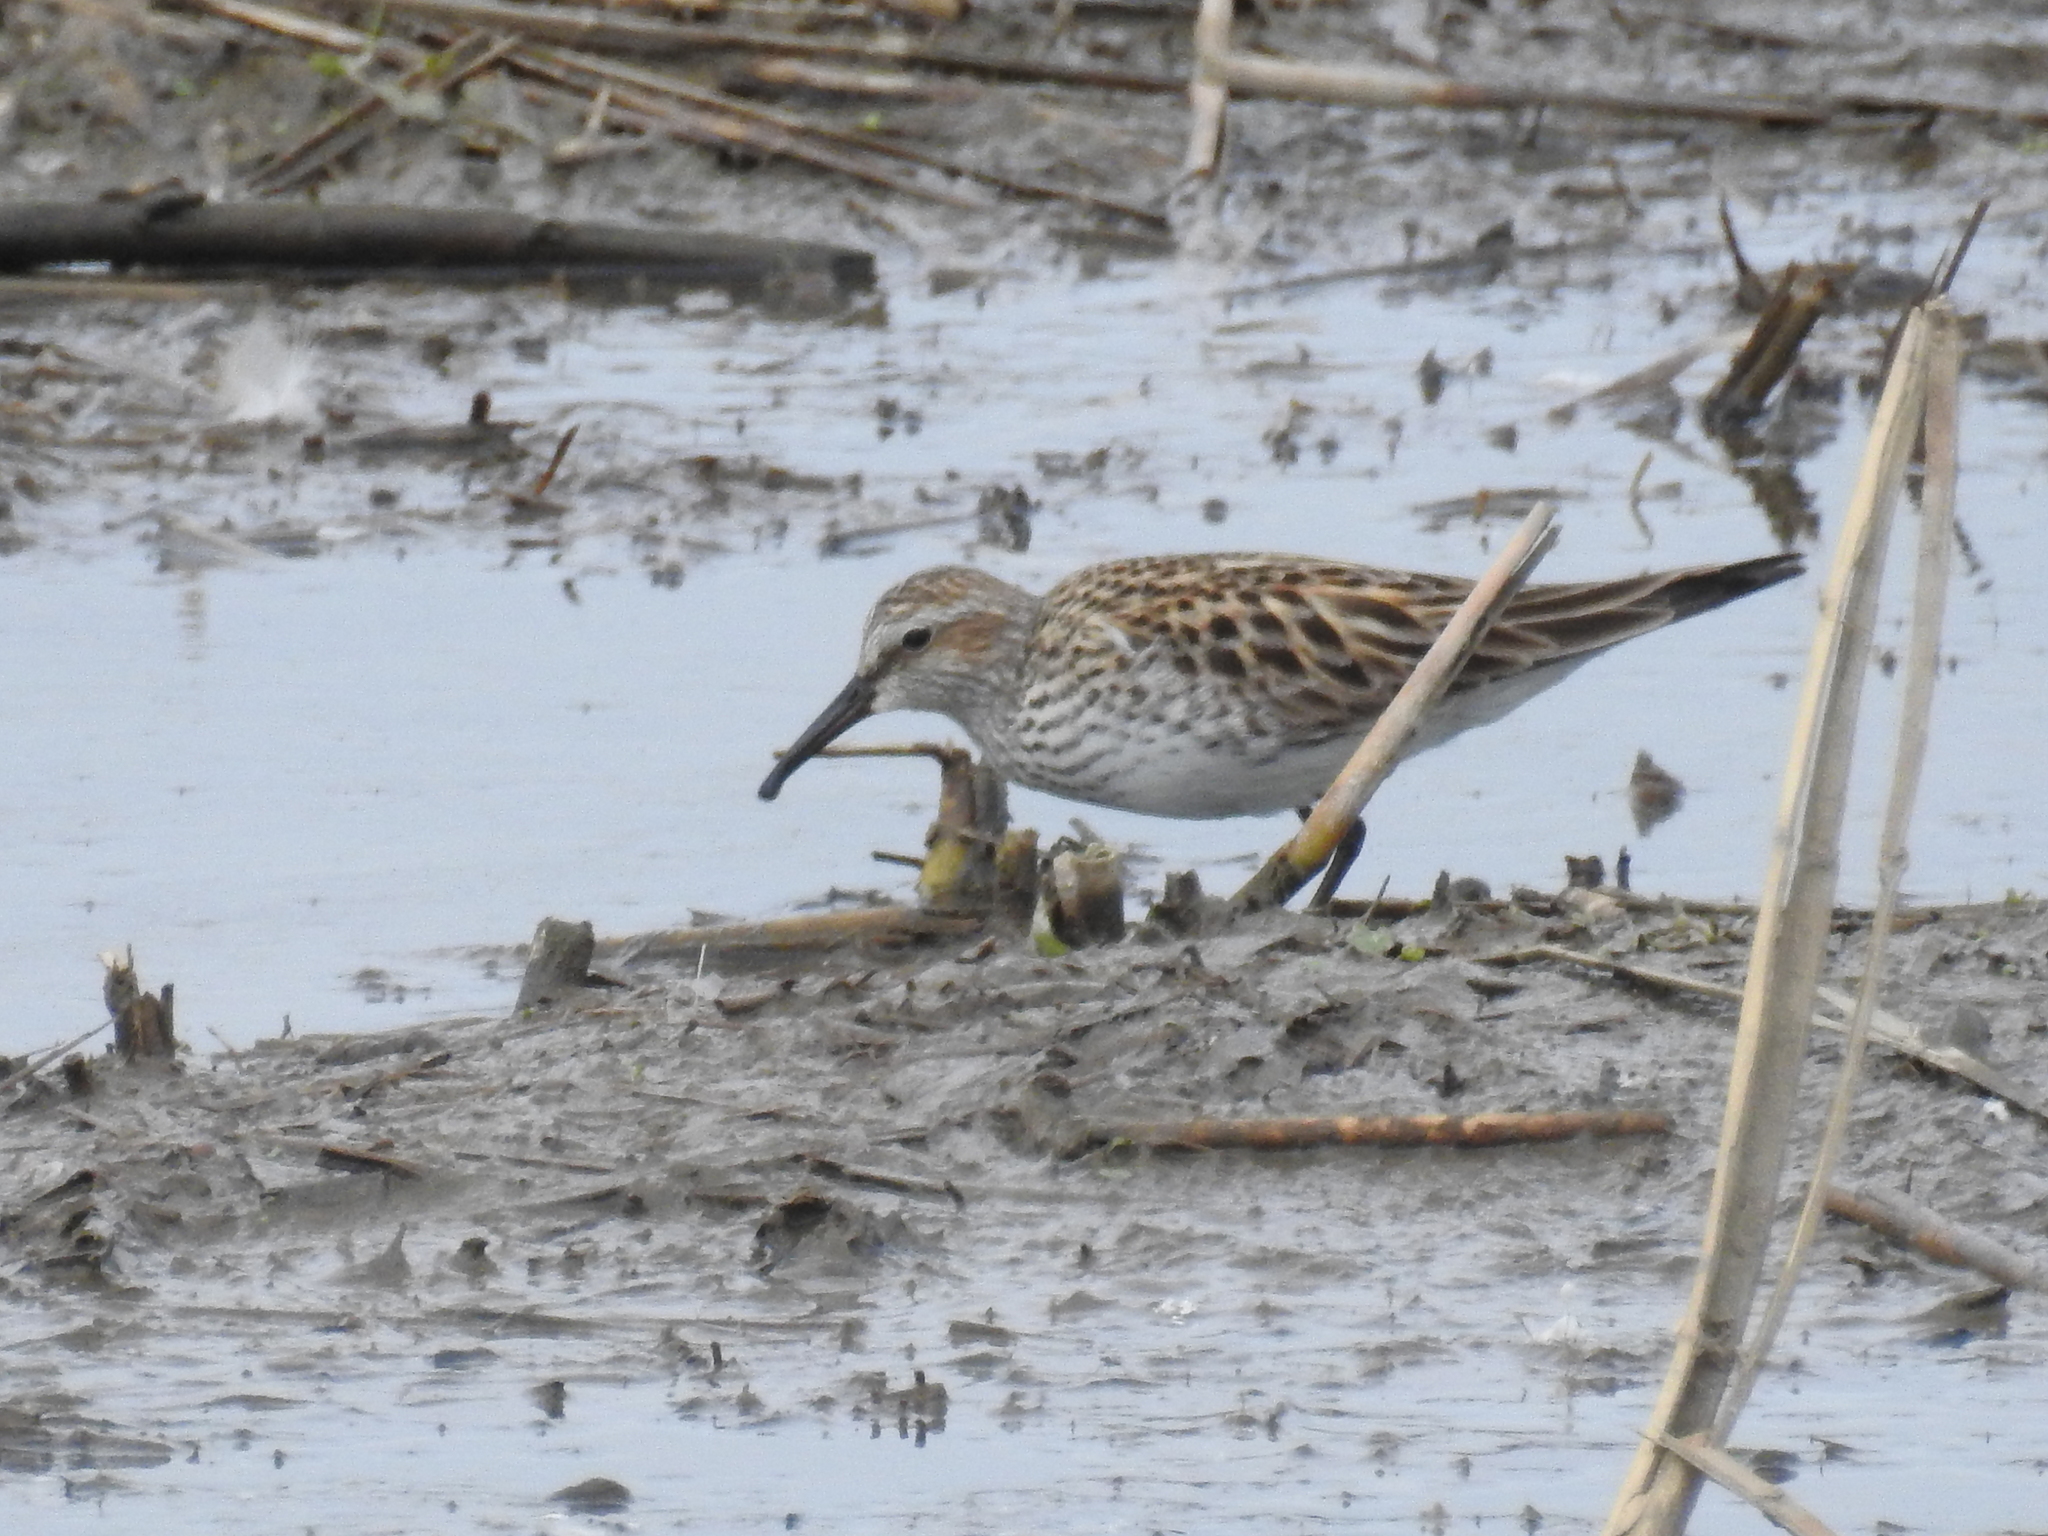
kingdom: Animalia
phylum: Chordata
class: Aves
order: Charadriiformes
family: Scolopacidae
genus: Calidris
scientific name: Calidris fuscicollis
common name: White-rumped sandpiper
